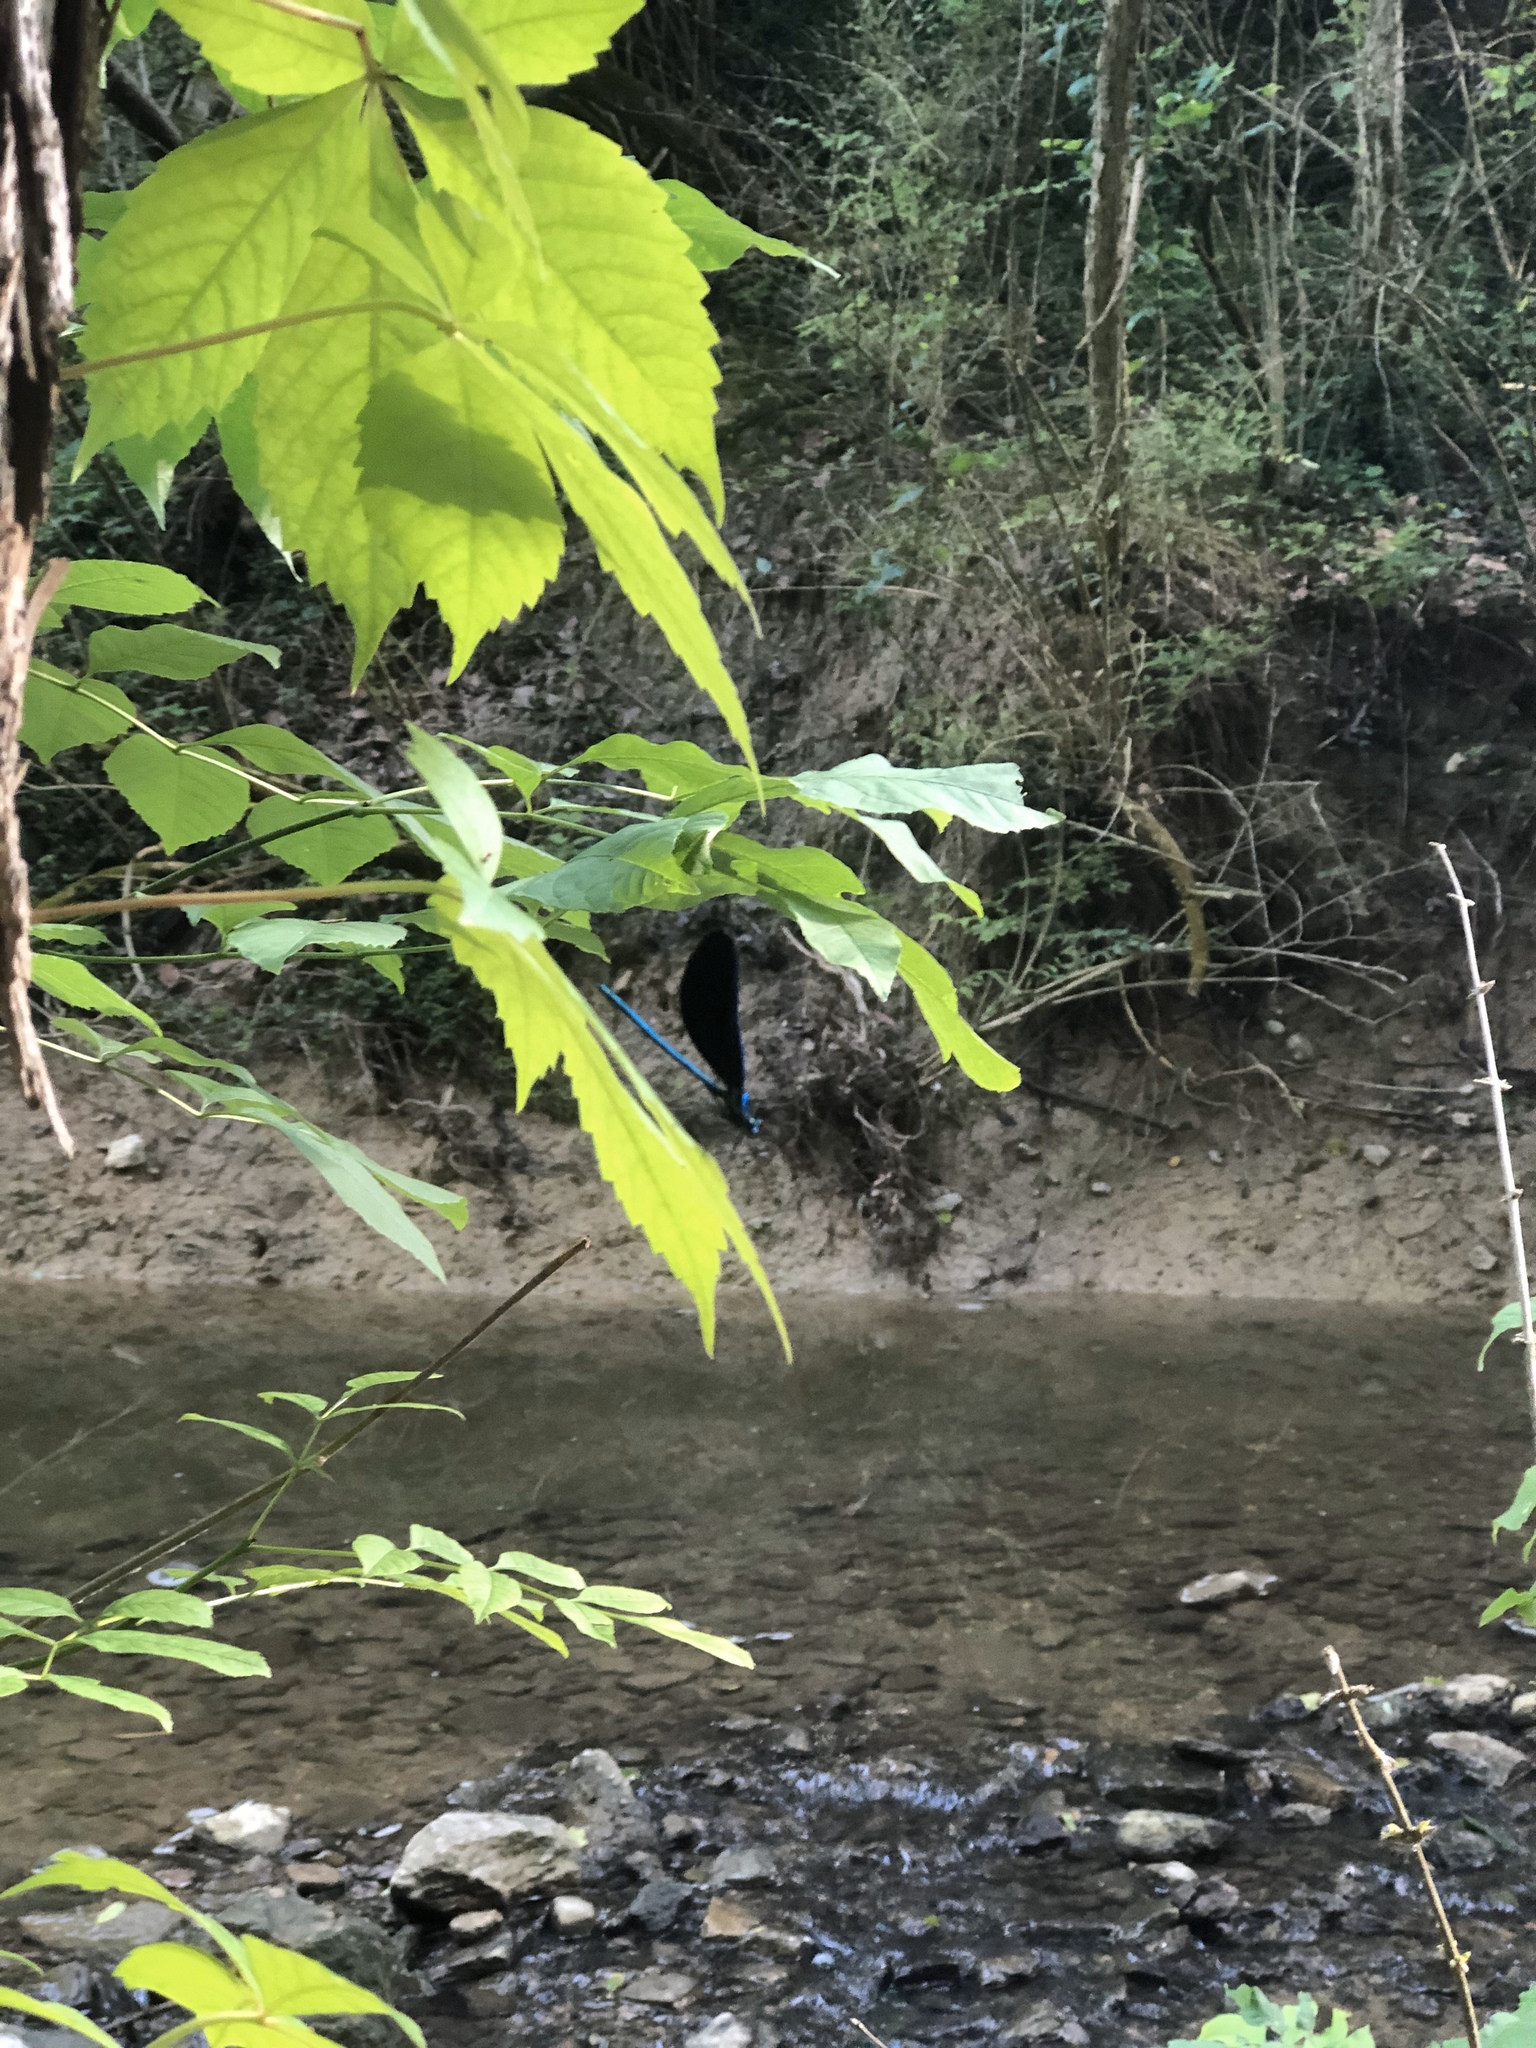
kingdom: Animalia
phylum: Arthropoda
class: Insecta
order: Odonata
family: Calopterygidae
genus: Calopteryx
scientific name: Calopteryx maculata
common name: Ebony jewelwing
